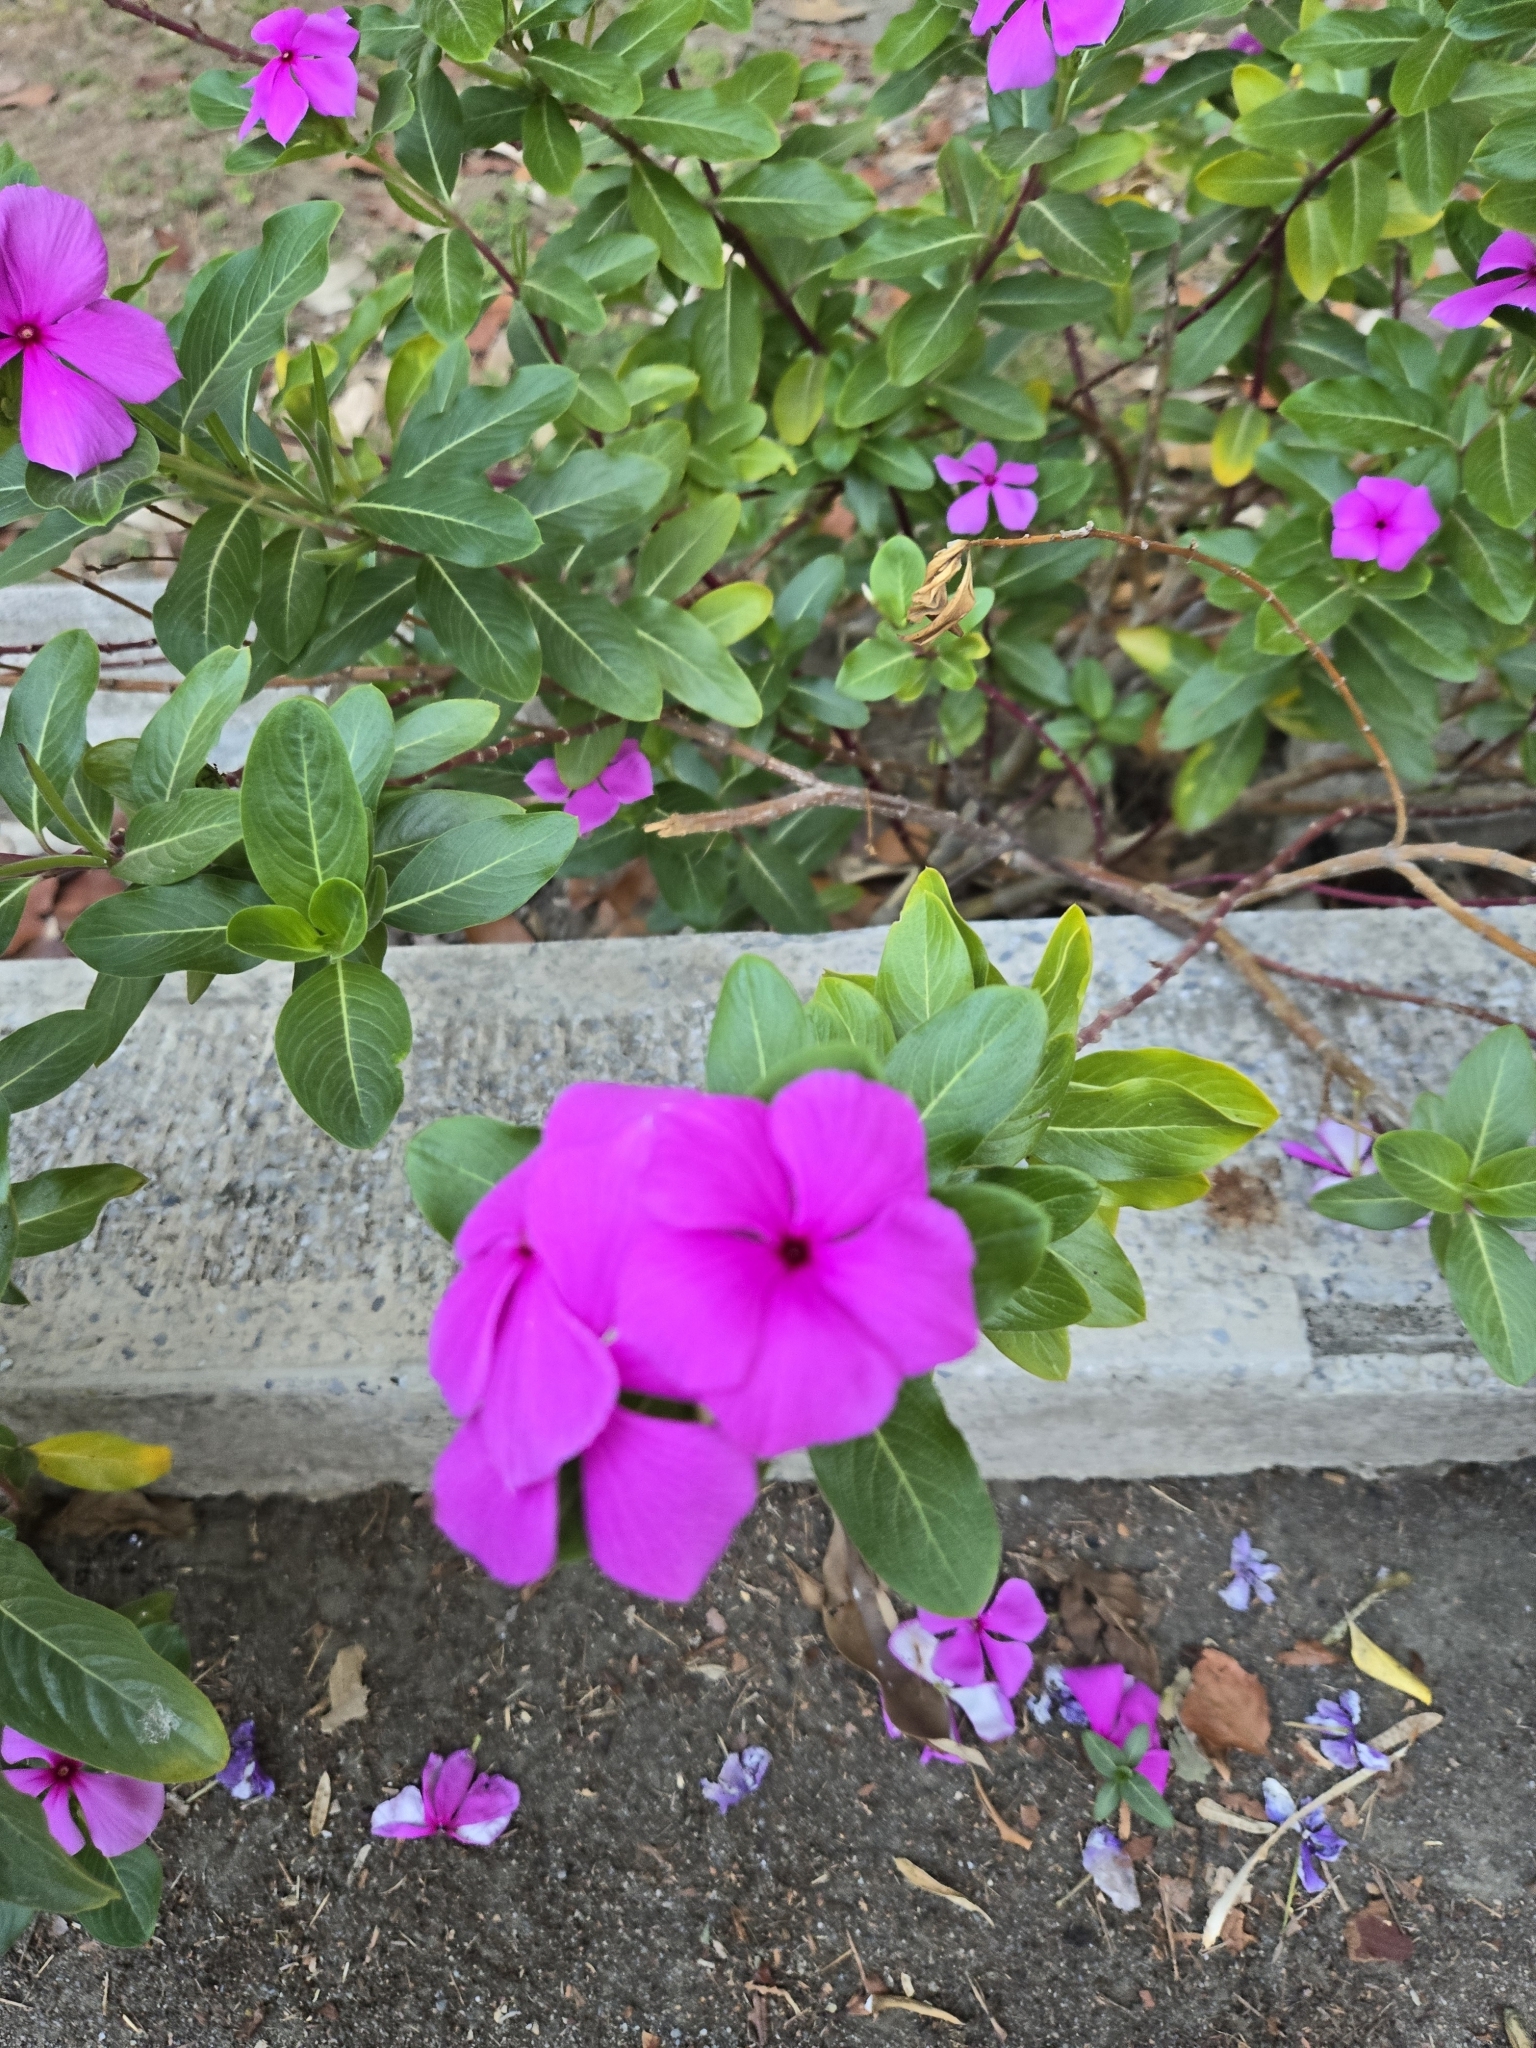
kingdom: Plantae
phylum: Tracheophyta
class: Magnoliopsida
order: Gentianales
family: Apocynaceae
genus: Catharanthus
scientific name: Catharanthus roseus
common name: Madagascar periwinkle
